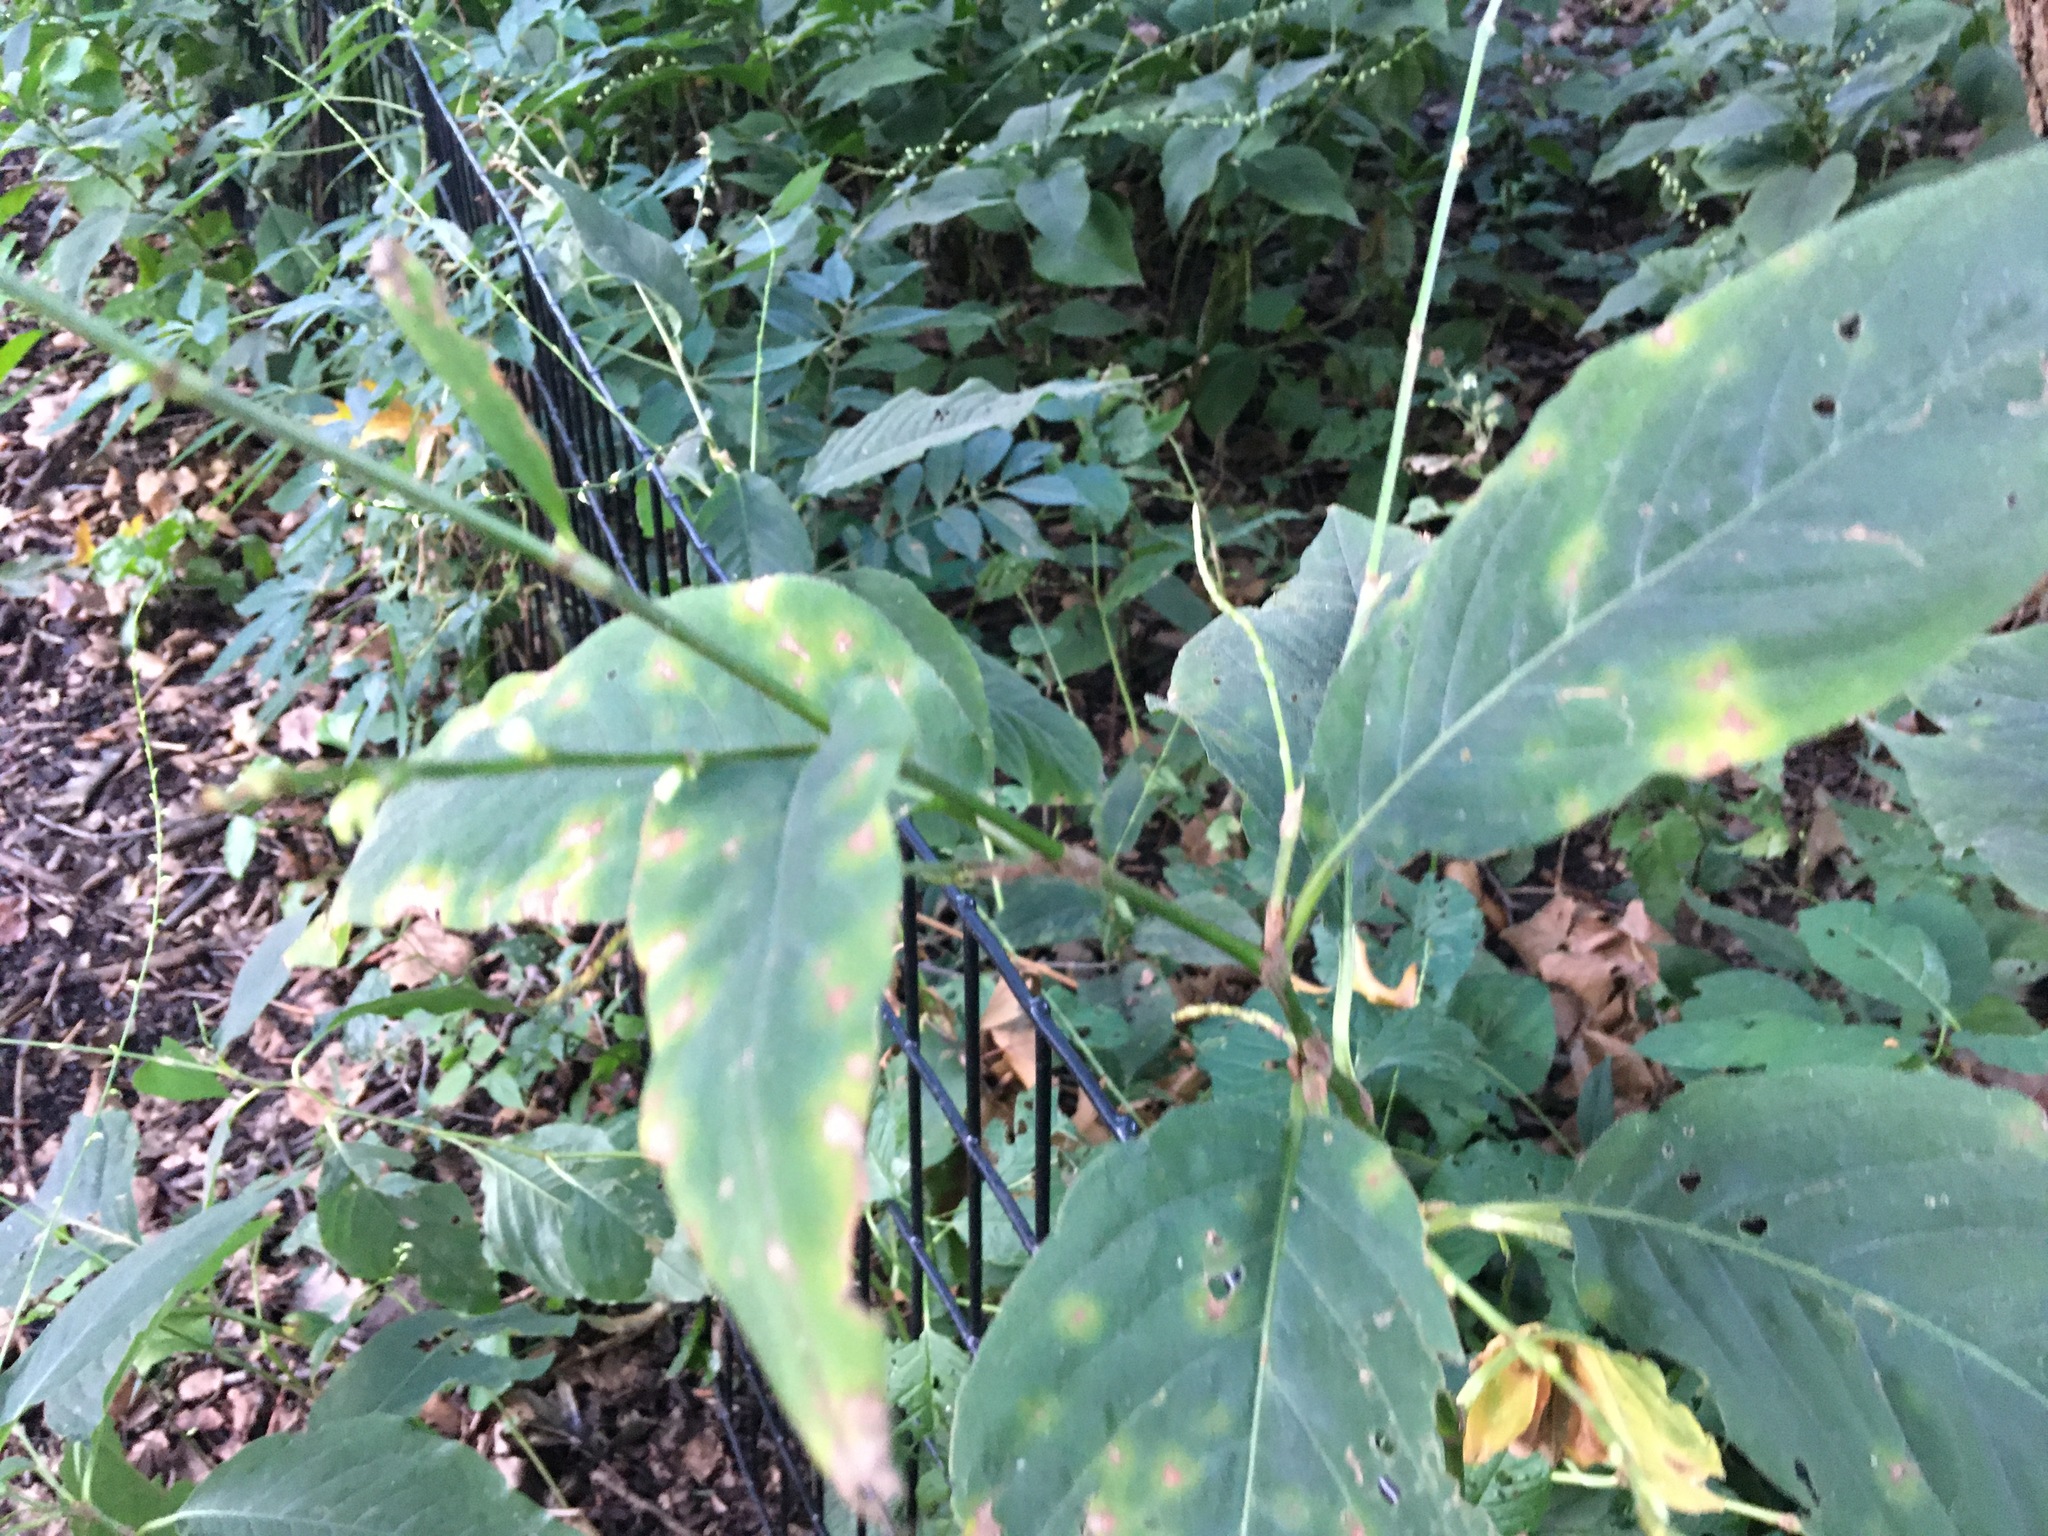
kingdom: Plantae
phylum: Tracheophyta
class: Magnoliopsida
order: Caryophyllales
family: Polygonaceae
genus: Persicaria
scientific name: Persicaria virginiana
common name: Jumpseed
